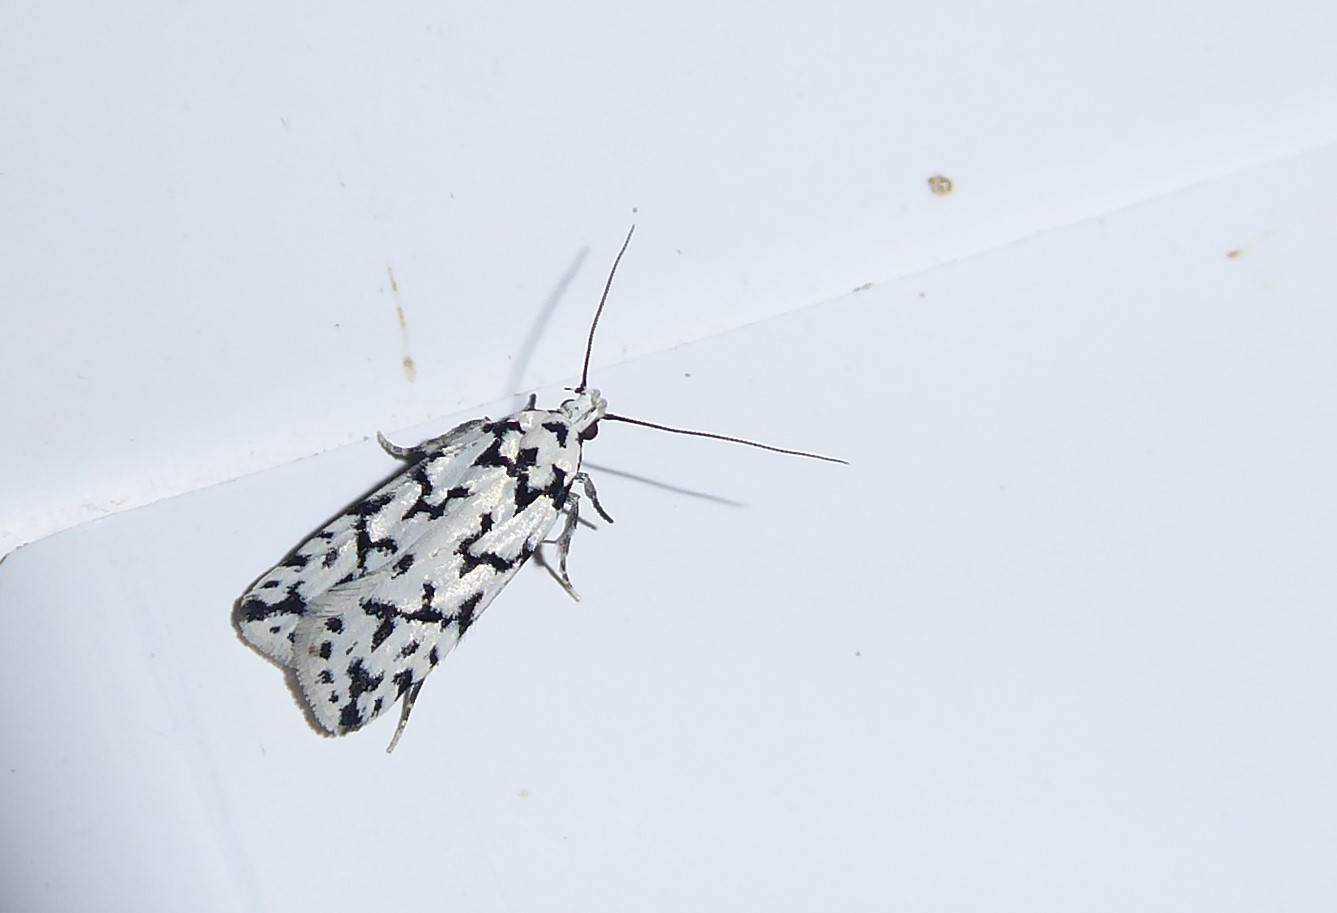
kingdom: Animalia
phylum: Arthropoda
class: Insecta
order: Lepidoptera
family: Oecophoridae
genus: Izatha
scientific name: Izatha katadiktya
